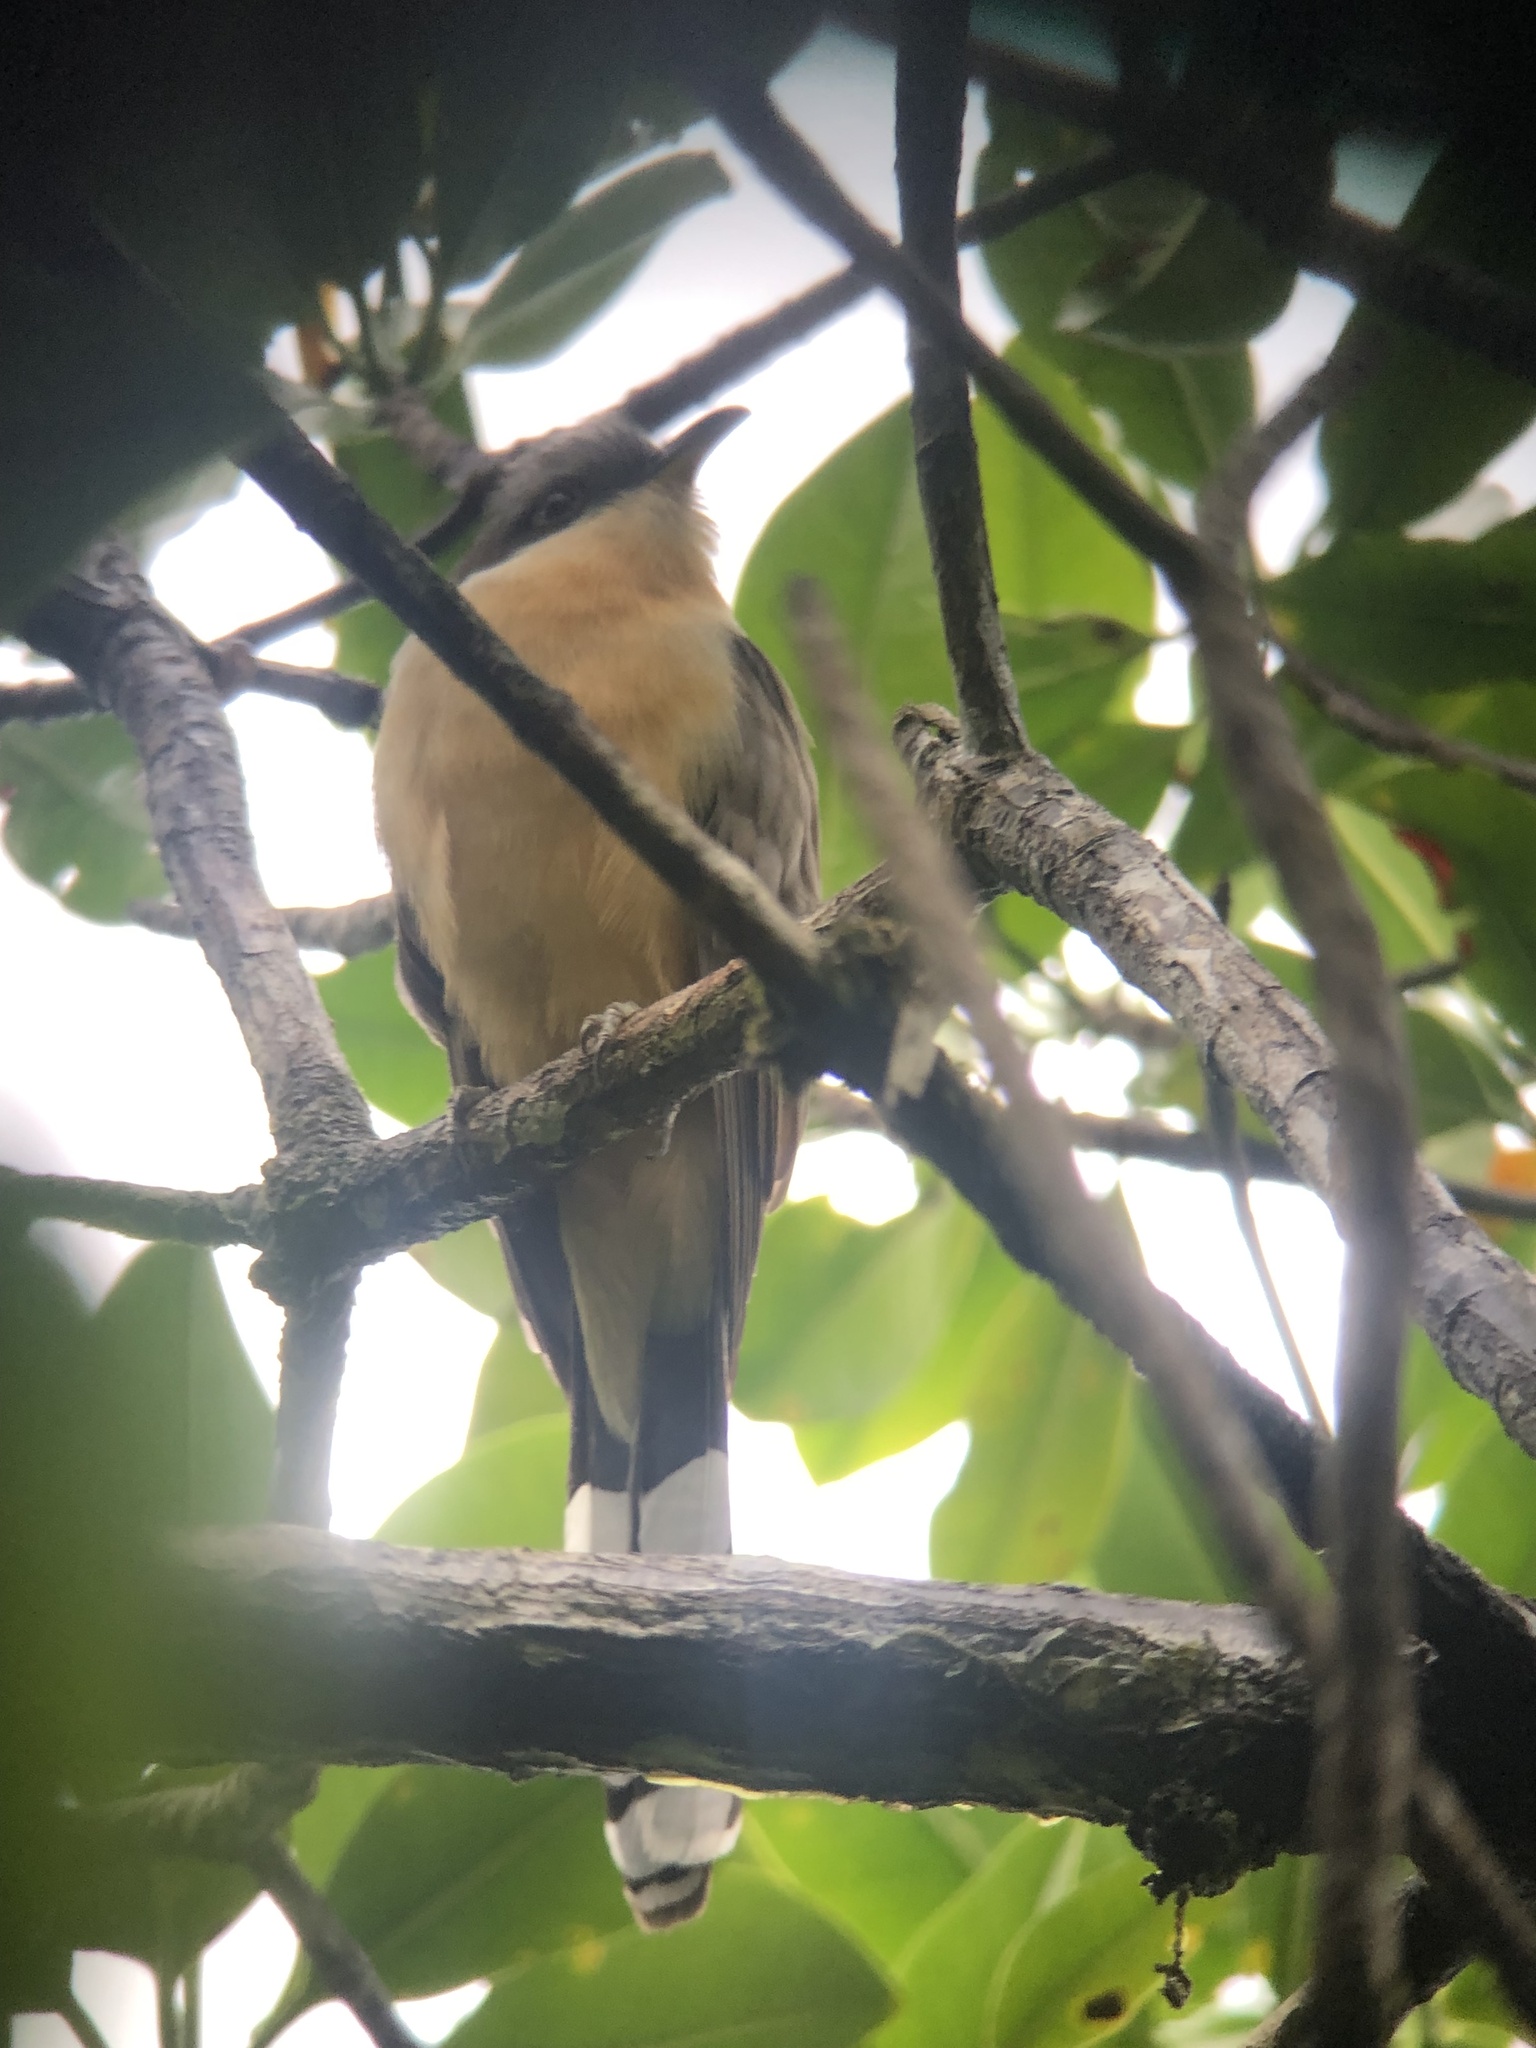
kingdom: Animalia
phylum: Chordata
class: Aves
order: Cuculiformes
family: Cuculidae
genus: Coccyzus
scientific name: Coccyzus minor
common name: Mangrove cuckoo
